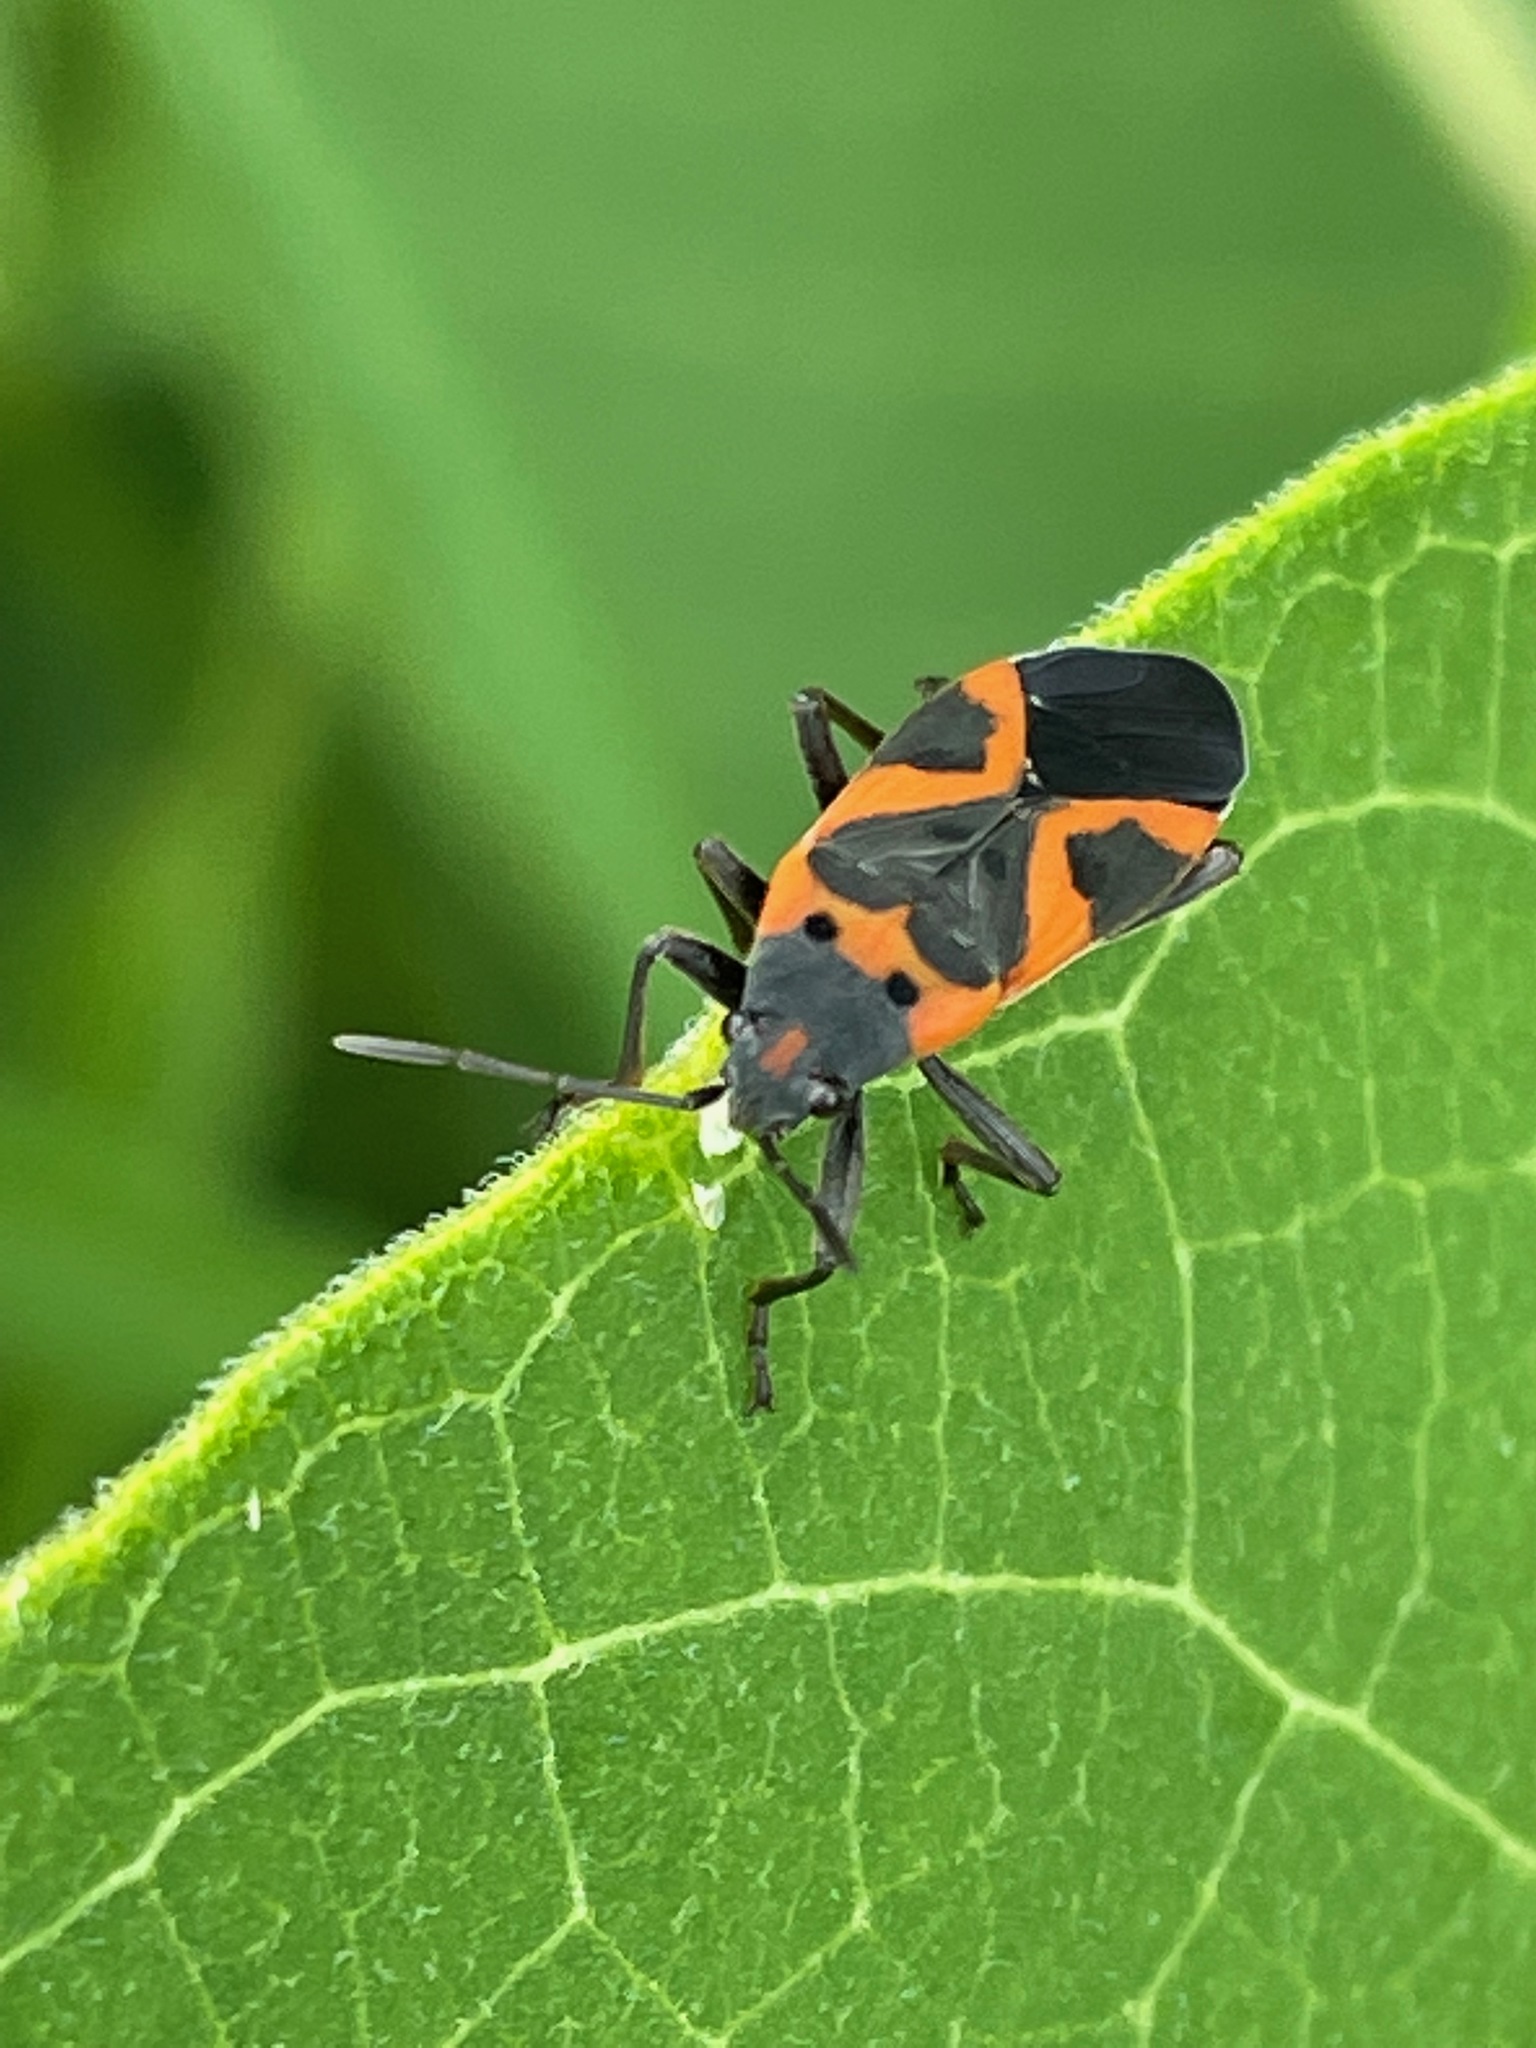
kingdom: Animalia
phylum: Arthropoda
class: Insecta
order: Hemiptera
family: Lygaeidae
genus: Lygaeus
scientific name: Lygaeus kalmii
